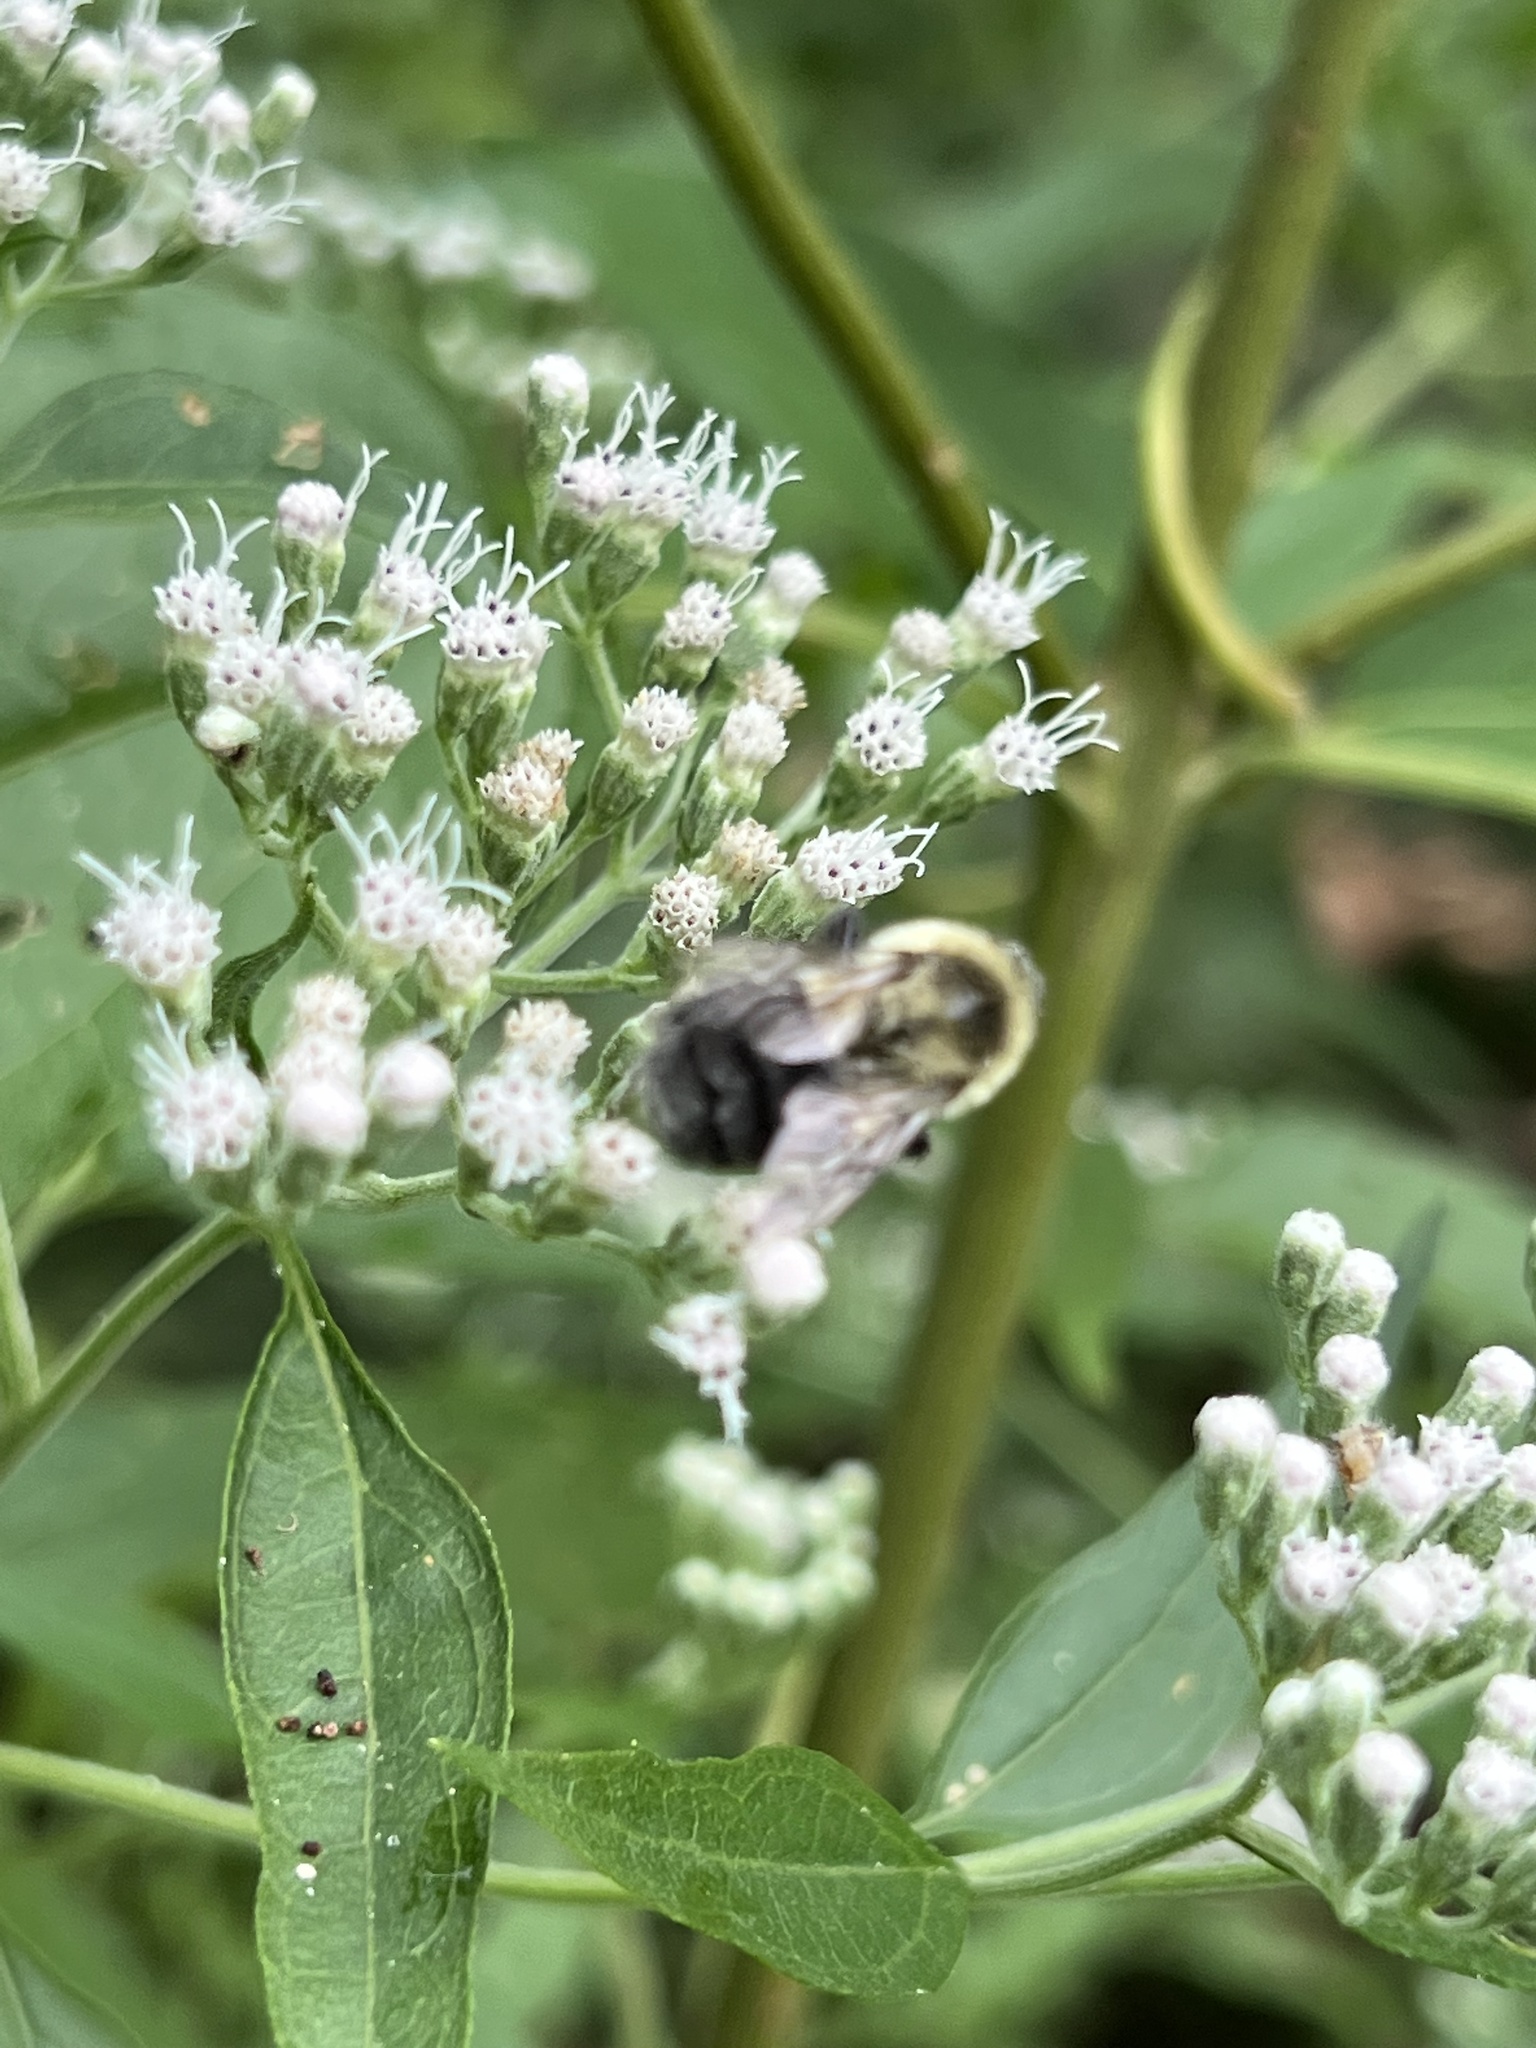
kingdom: Animalia
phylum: Arthropoda
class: Insecta
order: Hymenoptera
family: Apidae
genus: Bombus
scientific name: Bombus impatiens
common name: Common eastern bumble bee
